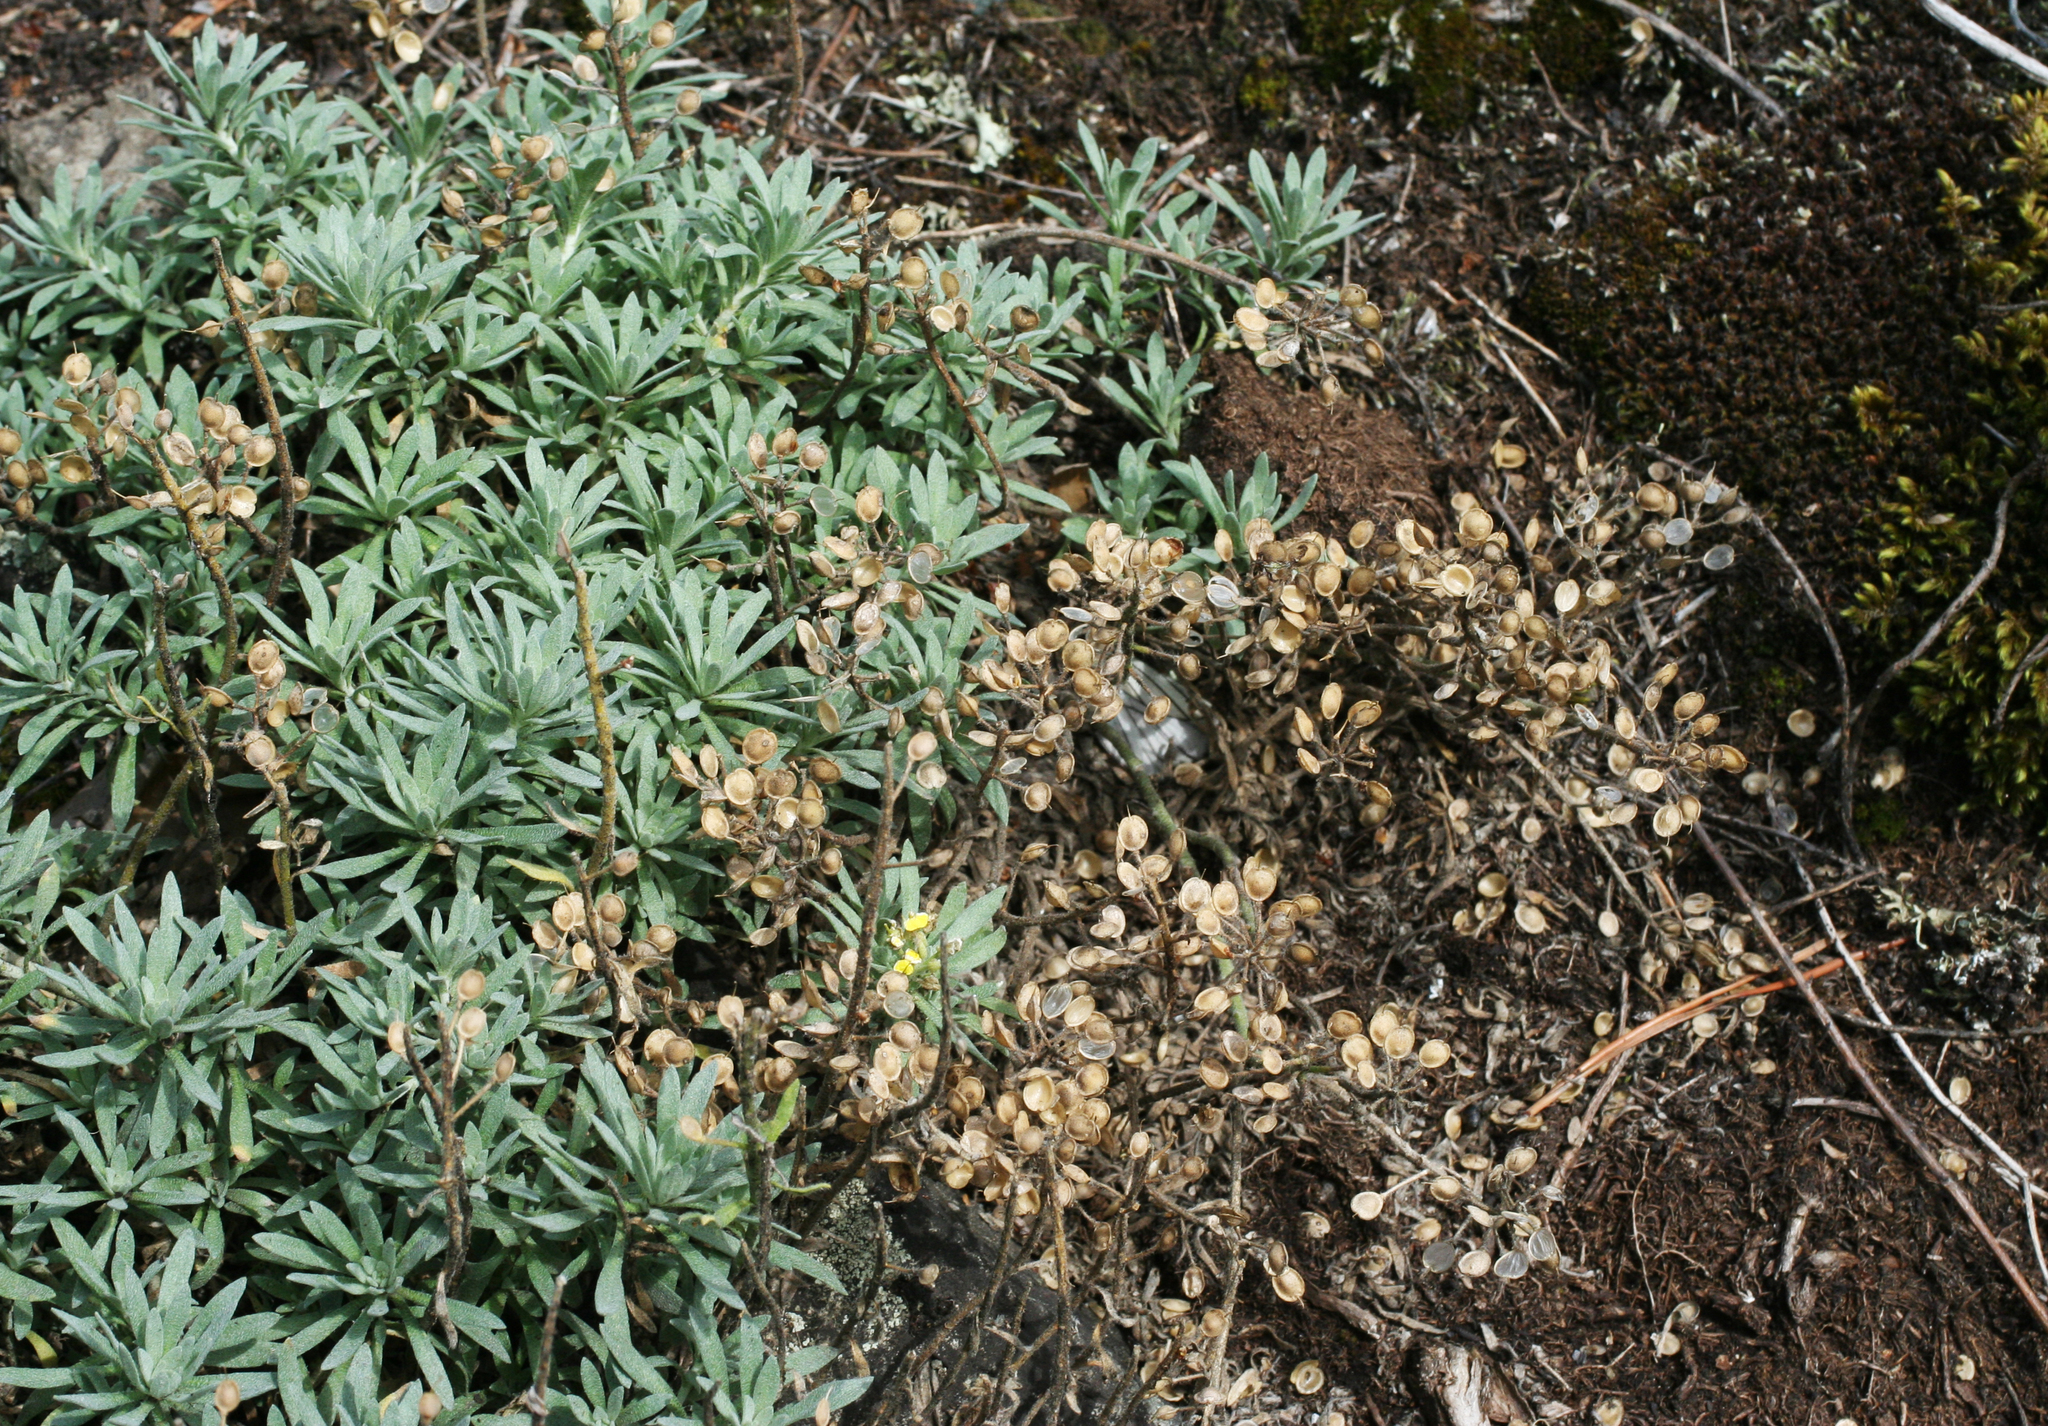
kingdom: Plantae
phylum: Tracheophyta
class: Magnoliopsida
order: Brassicales
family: Brassicaceae
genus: Alyssum
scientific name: Alyssum lenense
